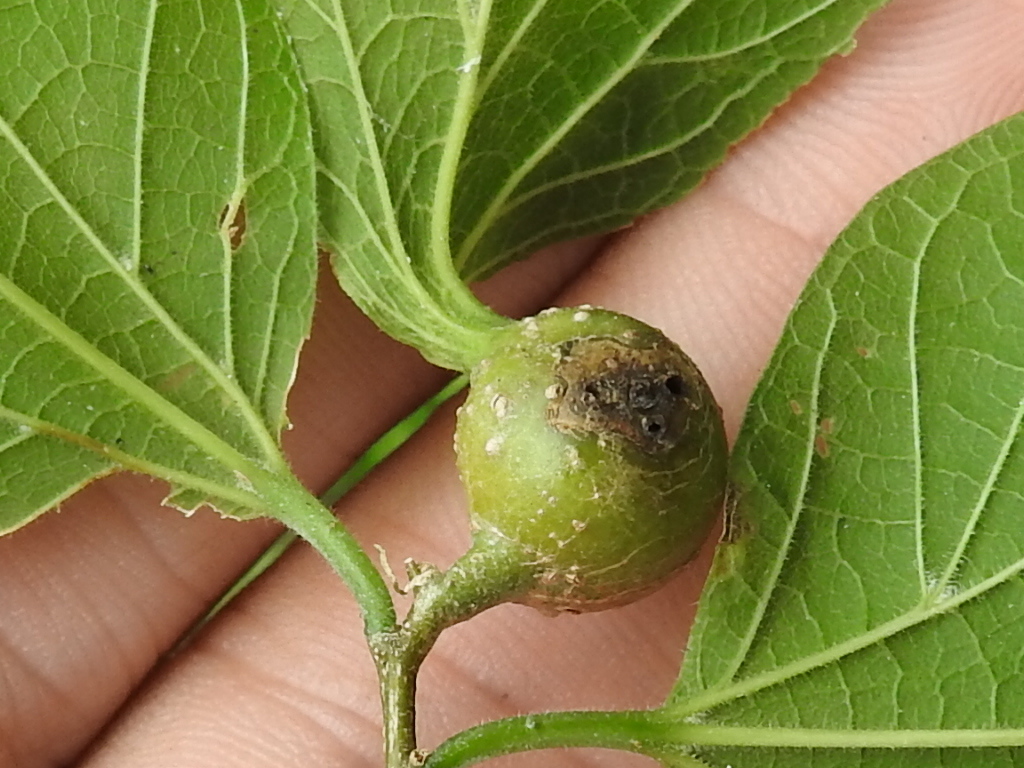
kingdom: Animalia
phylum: Arthropoda
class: Insecta
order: Hemiptera
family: Aphalaridae
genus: Pachypsylla
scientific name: Pachypsylla venusta
